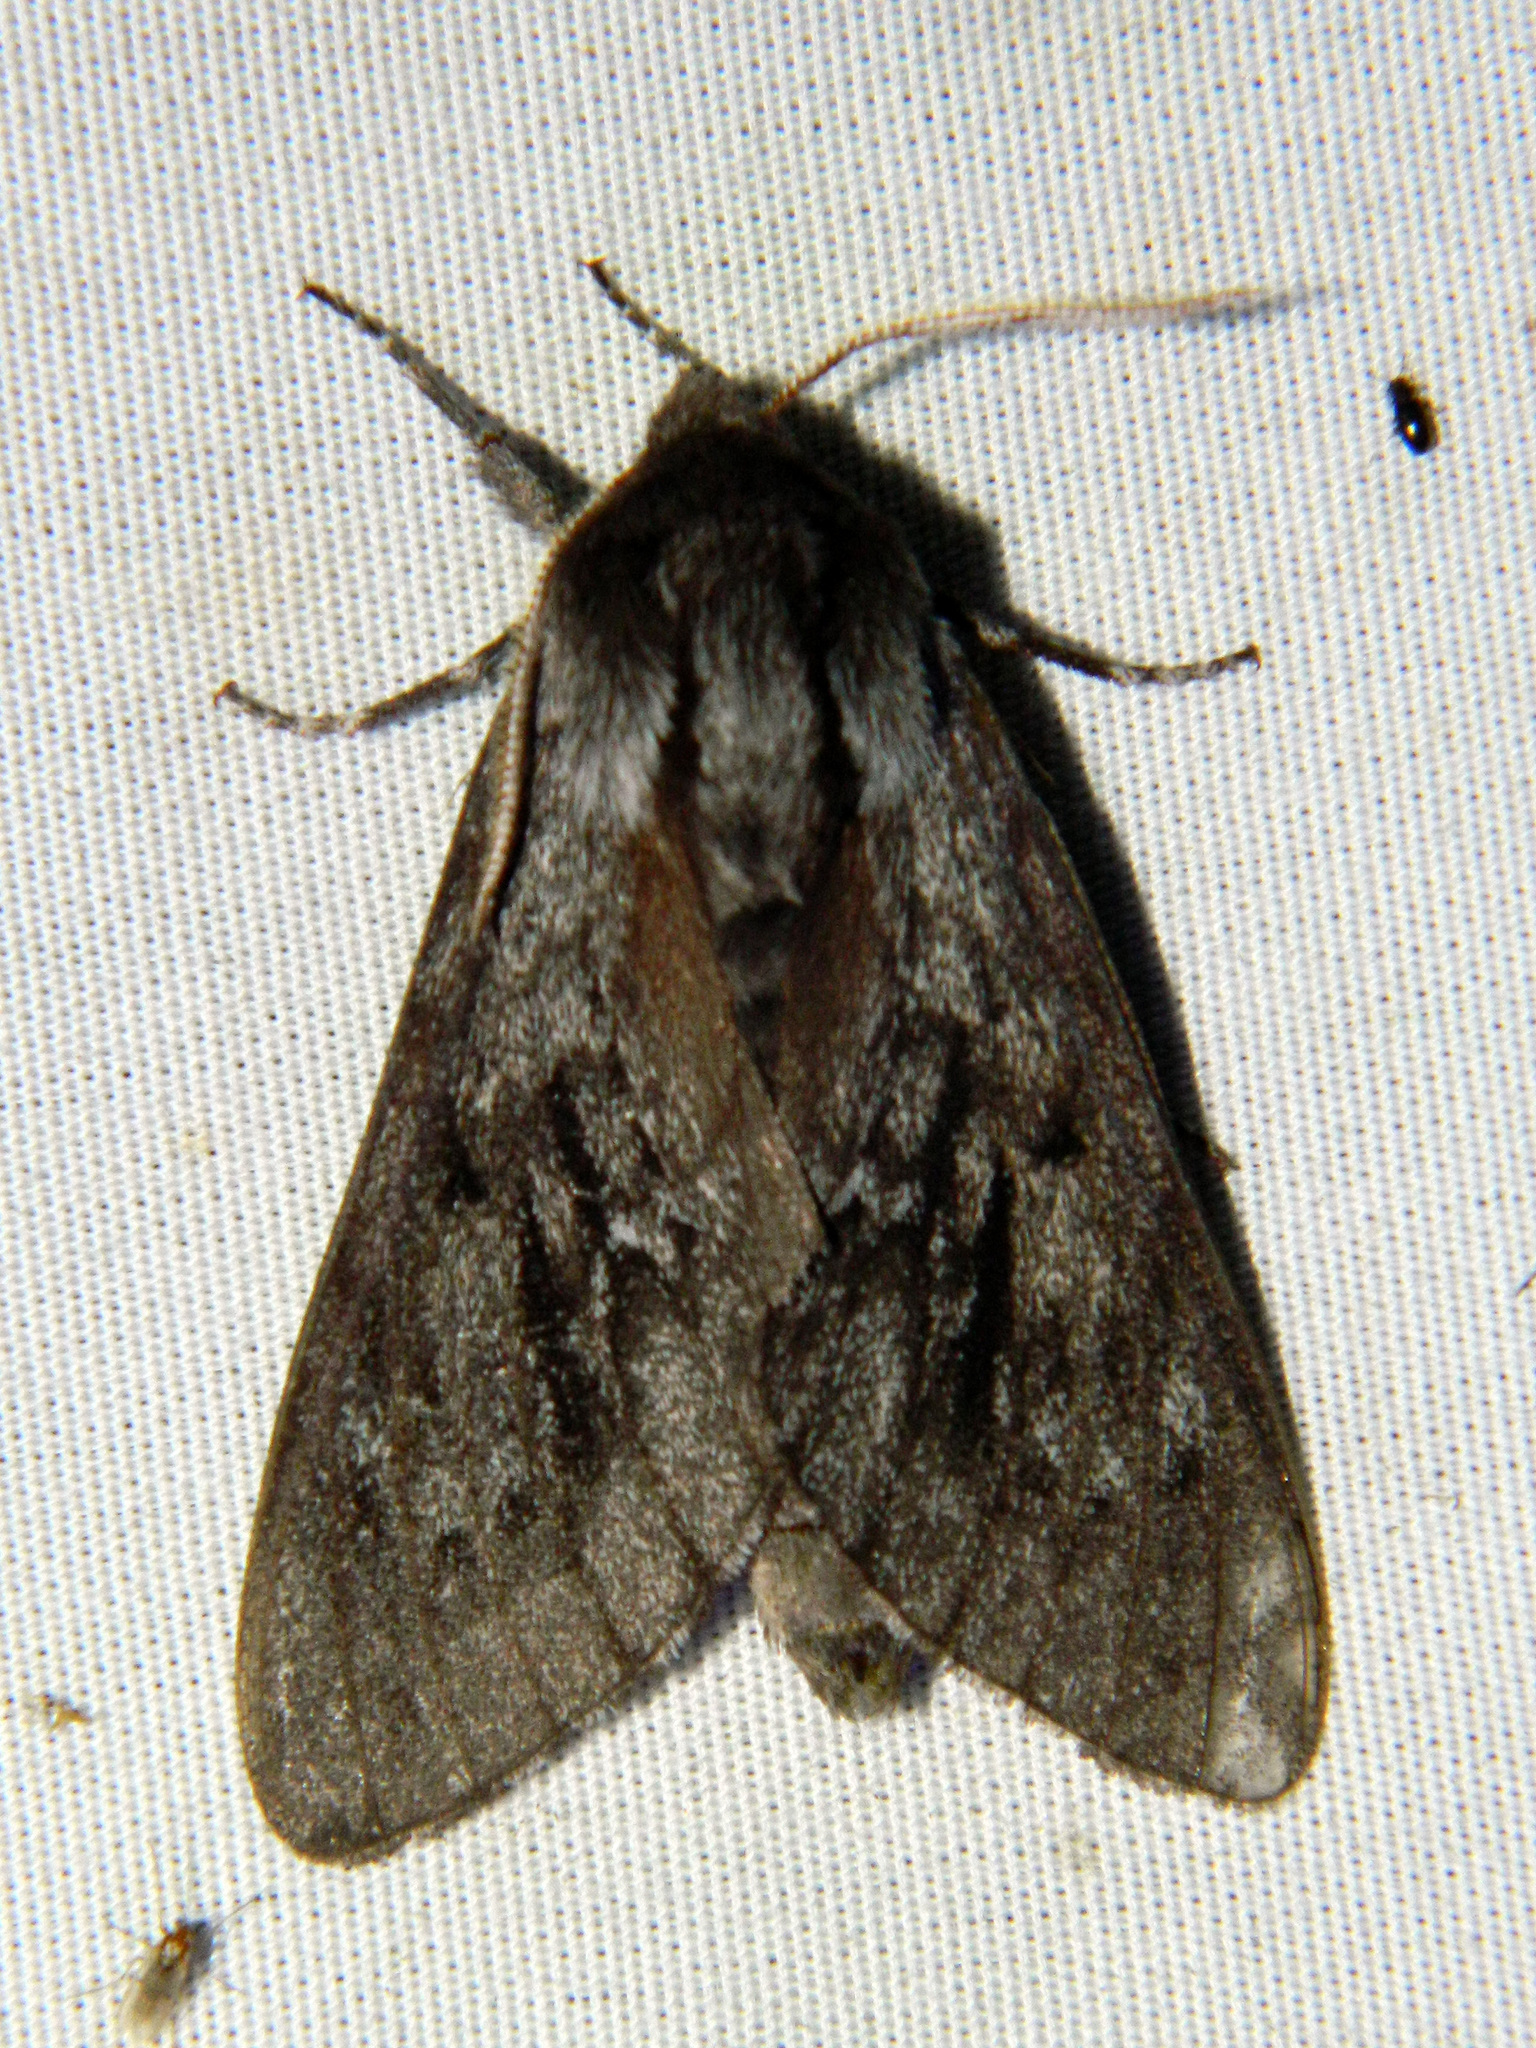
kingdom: Animalia
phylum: Arthropoda
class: Insecta
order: Lepidoptera
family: Sphingidae
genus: Lapara
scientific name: Lapara bombycoides
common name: Northern pine sphinx
